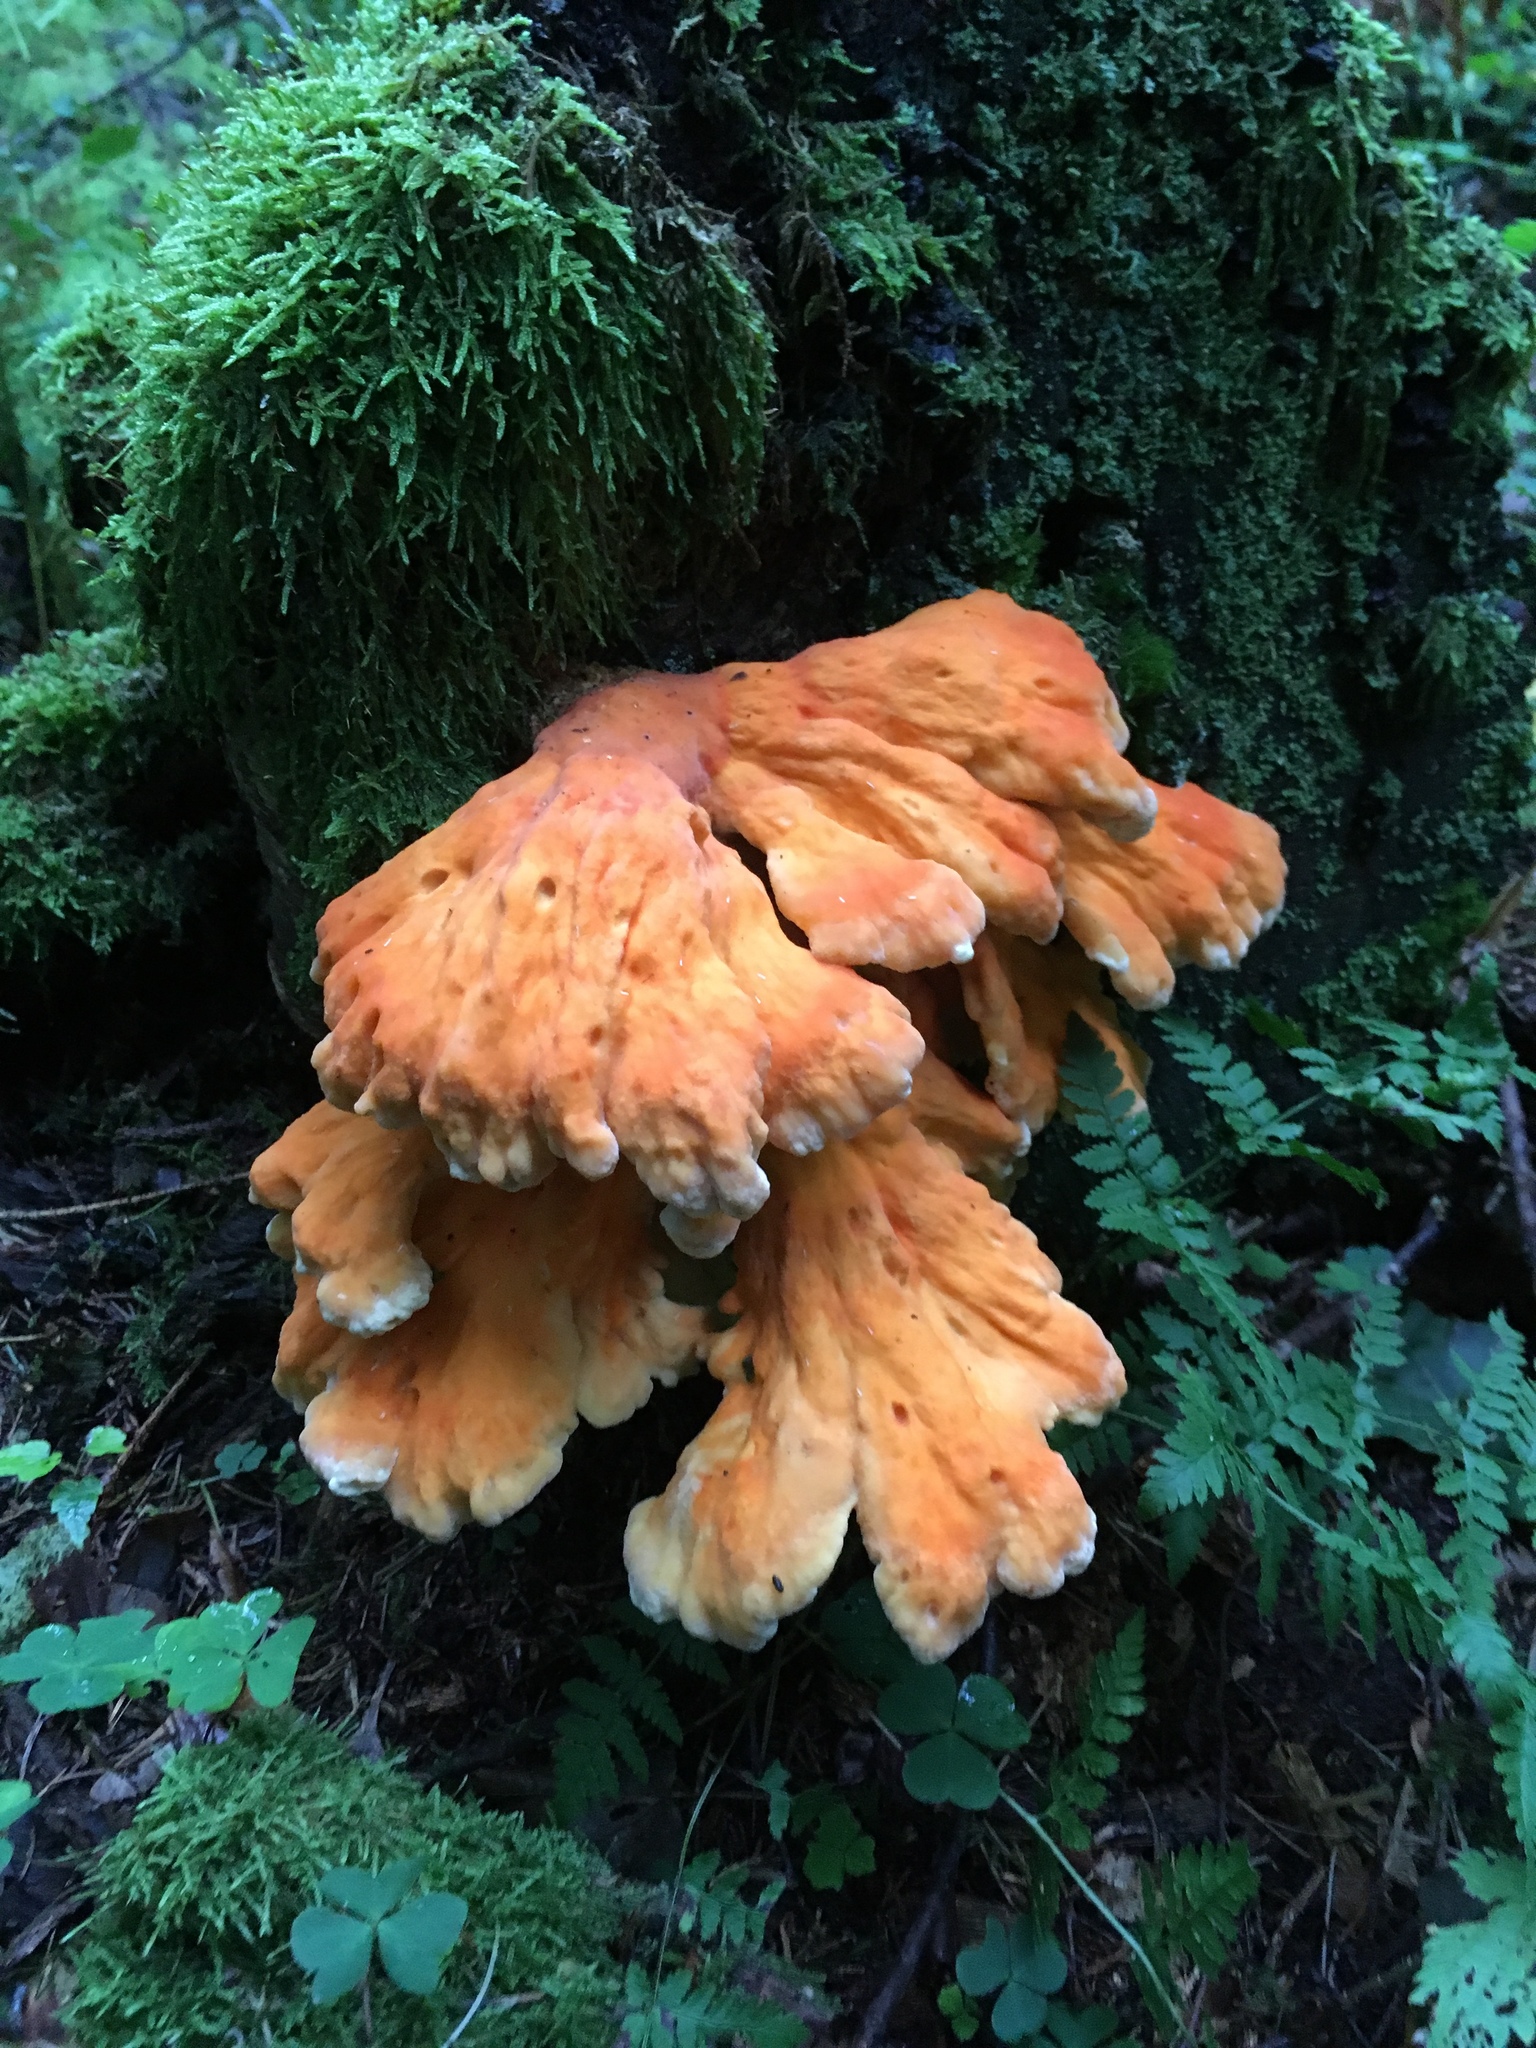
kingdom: Fungi
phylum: Basidiomycota
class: Agaricomycetes
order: Polyporales
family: Laetiporaceae
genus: Laetiporus
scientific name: Laetiporus sulphureus
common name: Chicken of the woods
